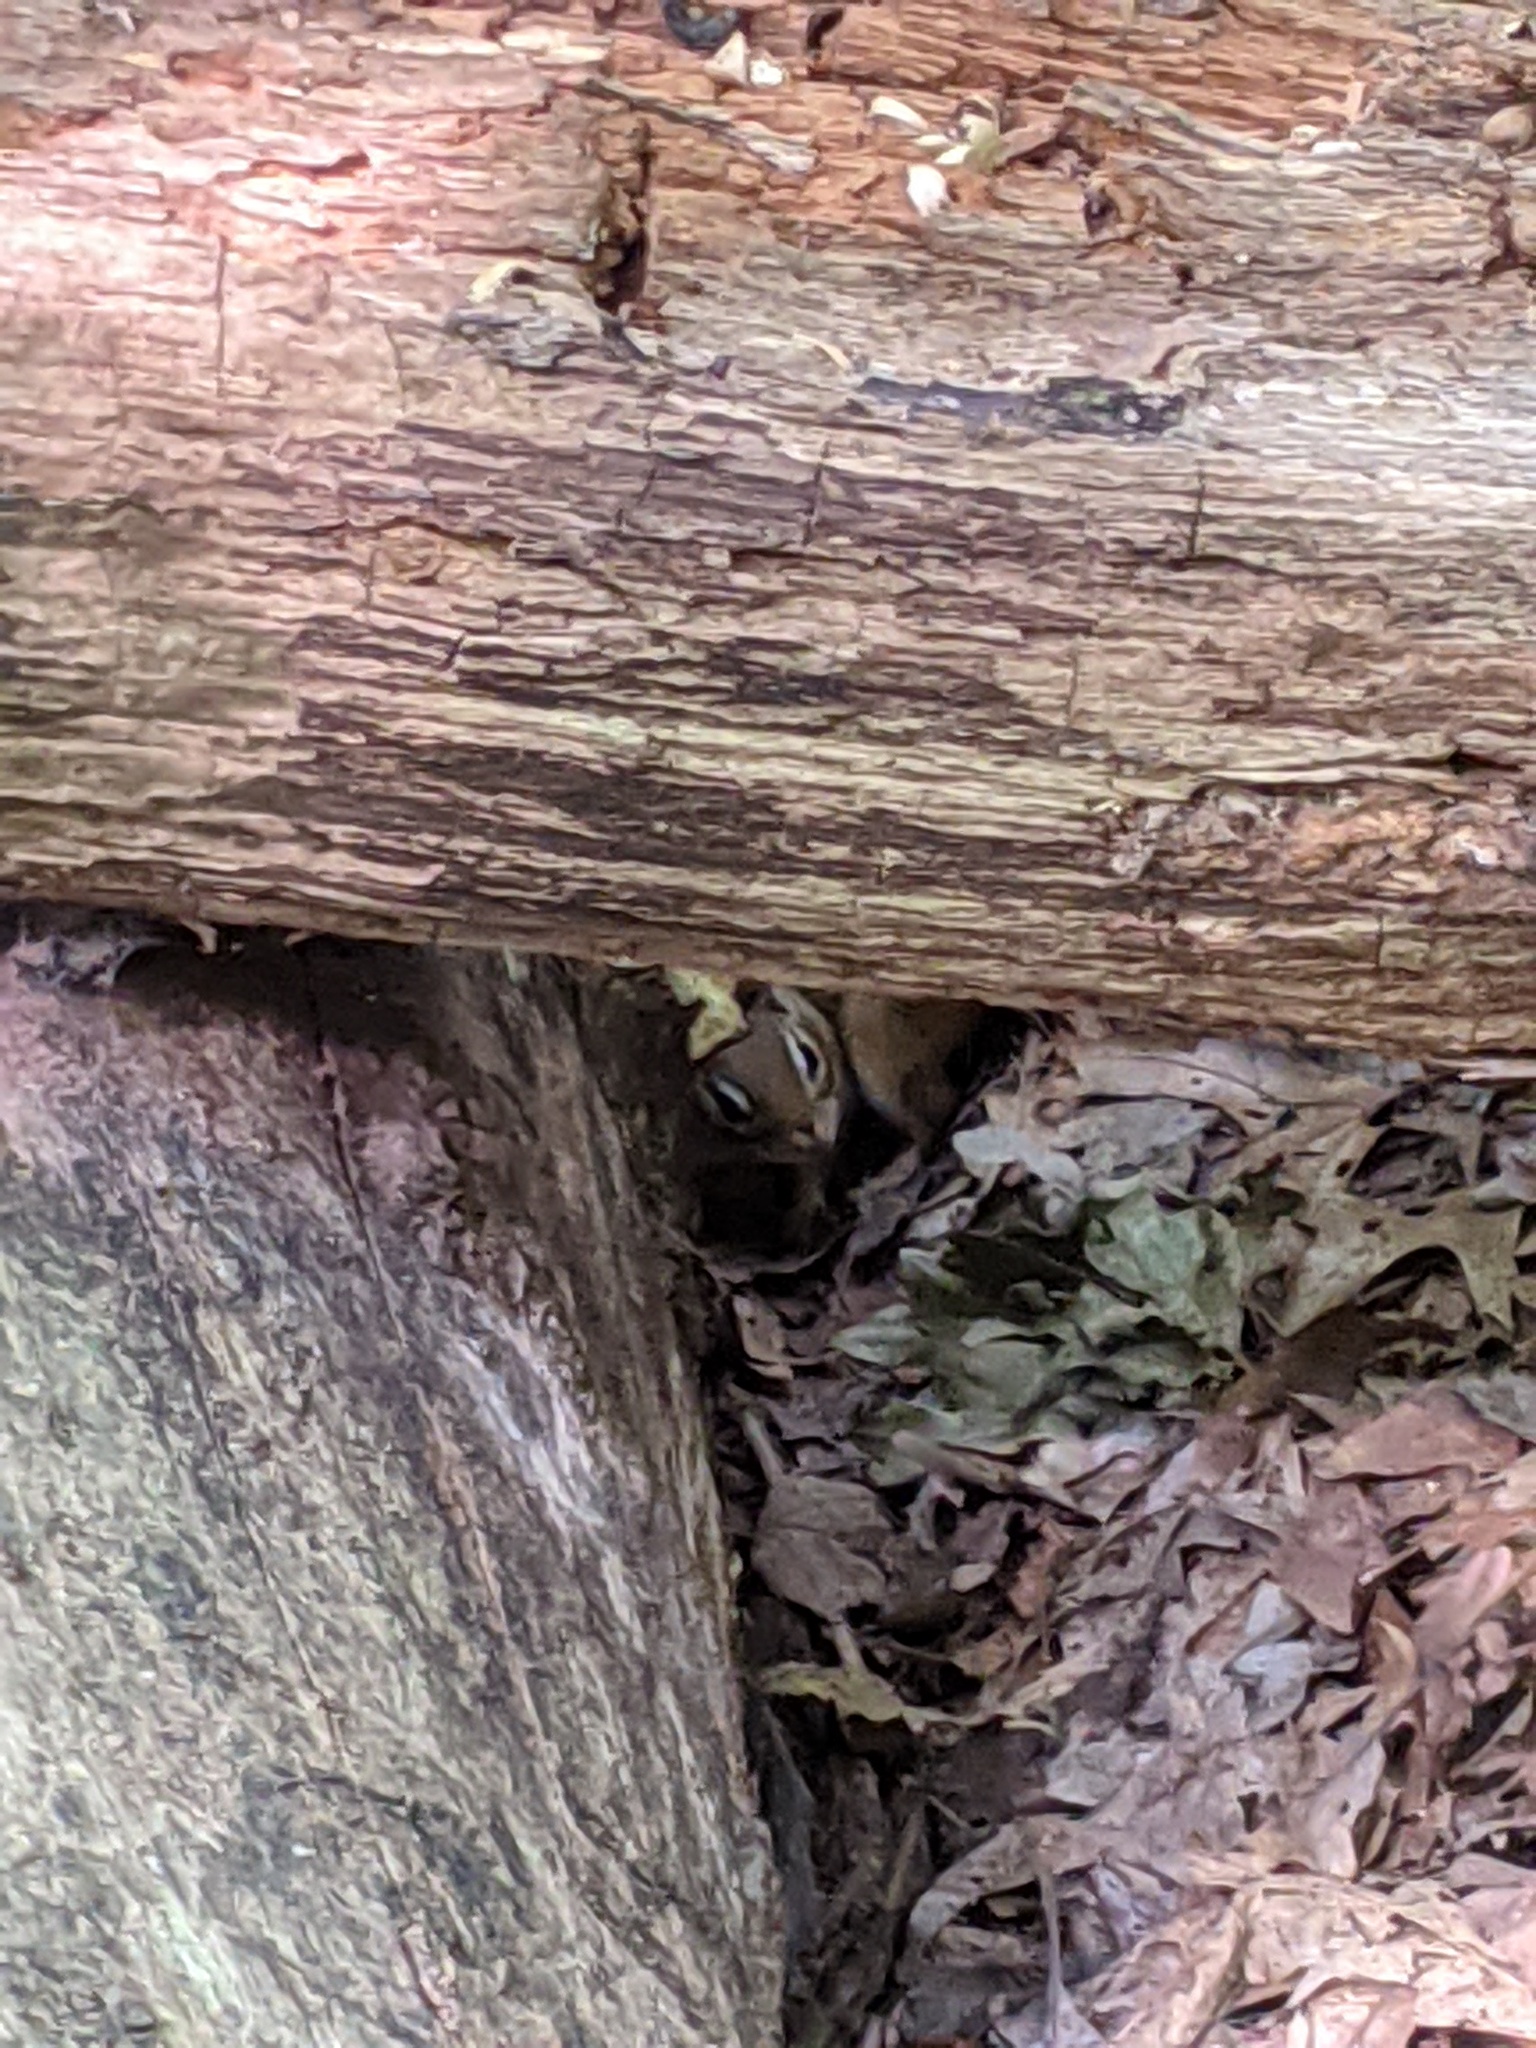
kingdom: Animalia
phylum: Chordata
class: Mammalia
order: Rodentia
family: Sciuridae
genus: Tamias
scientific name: Tamias striatus
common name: Eastern chipmunk
